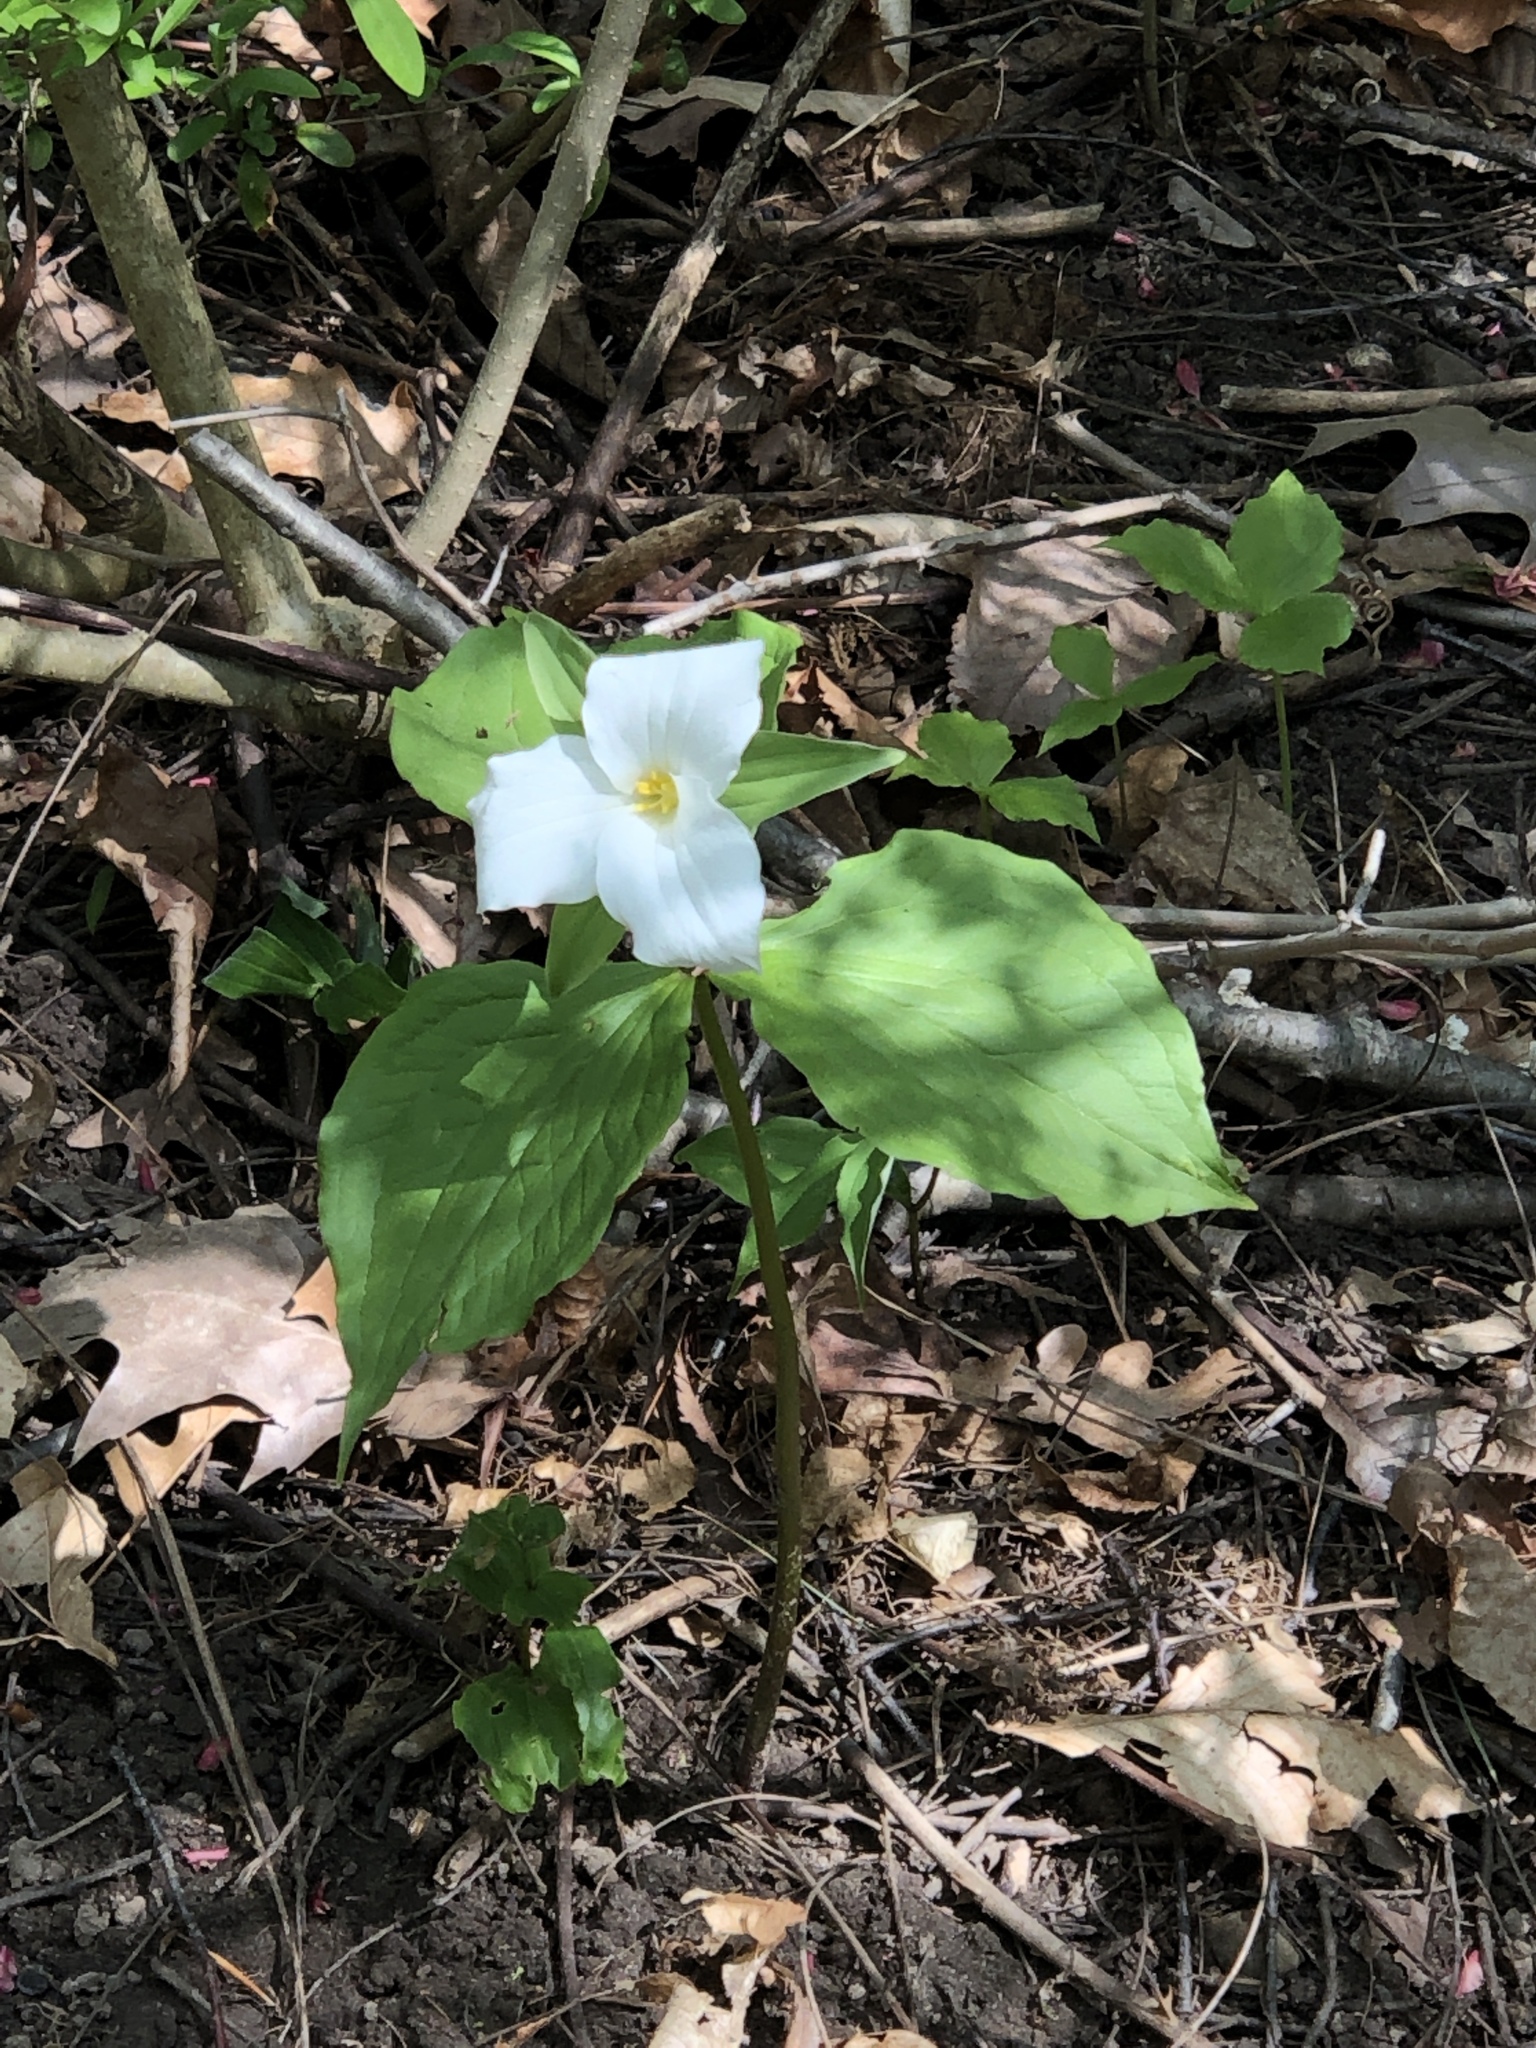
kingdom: Plantae
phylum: Tracheophyta
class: Liliopsida
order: Liliales
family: Melanthiaceae
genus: Trillium
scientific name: Trillium grandiflorum
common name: Great white trillium
